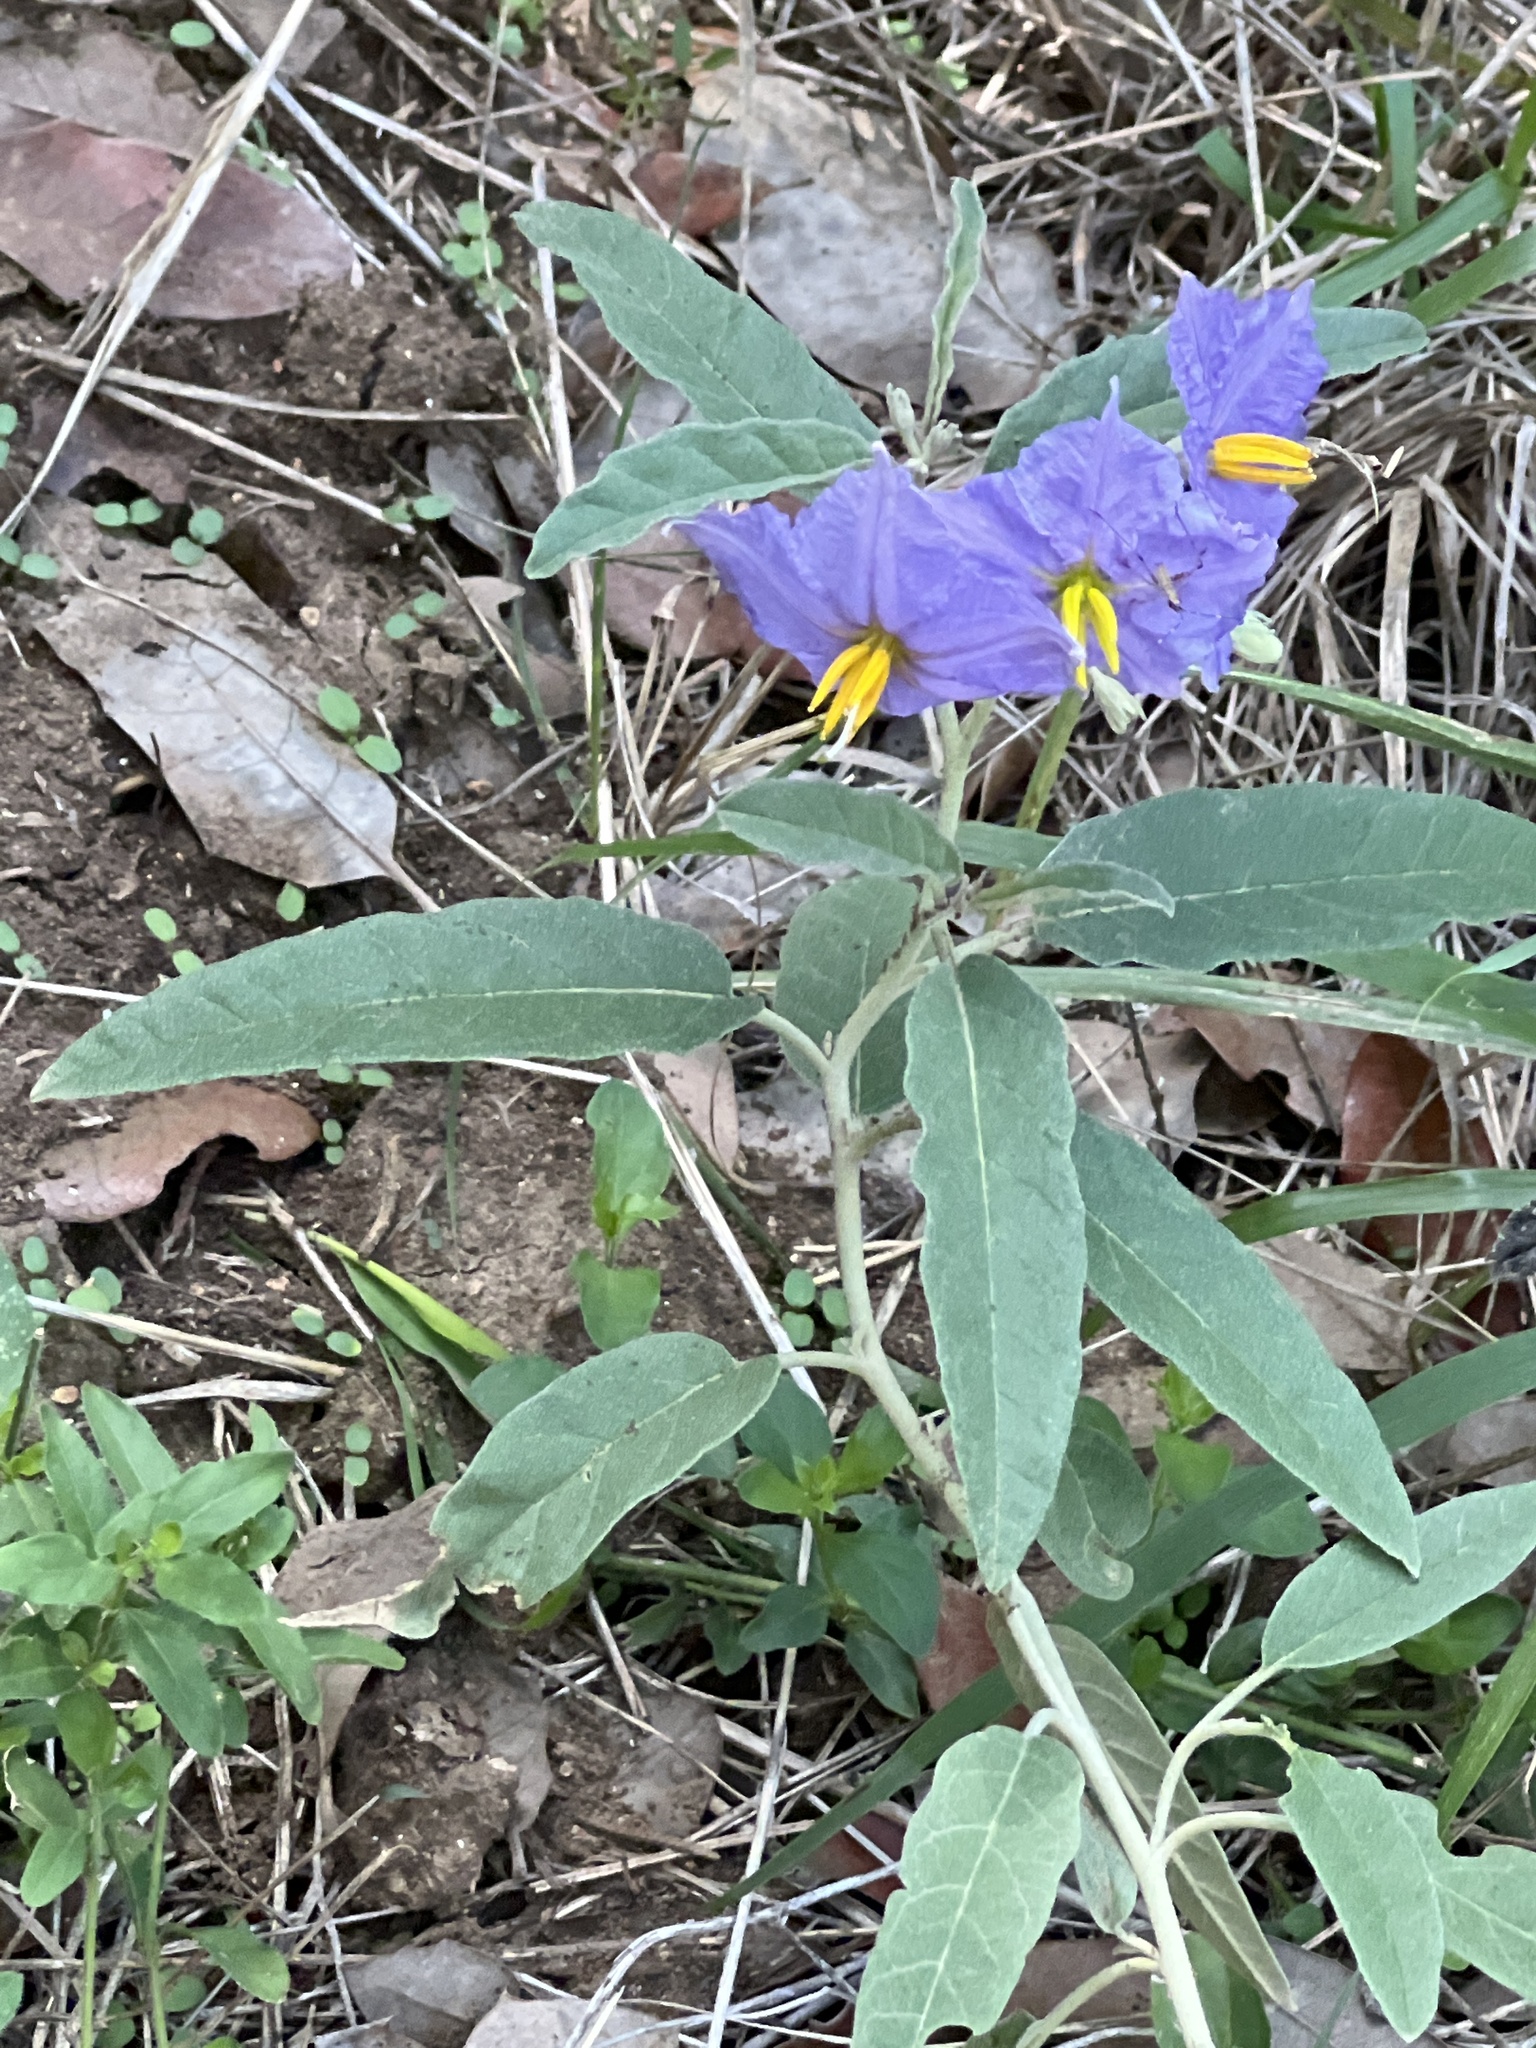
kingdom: Plantae
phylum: Tracheophyta
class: Magnoliopsida
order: Solanales
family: Solanaceae
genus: Solanum
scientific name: Solanum elaeagnifolium
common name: Silverleaf nightshade
